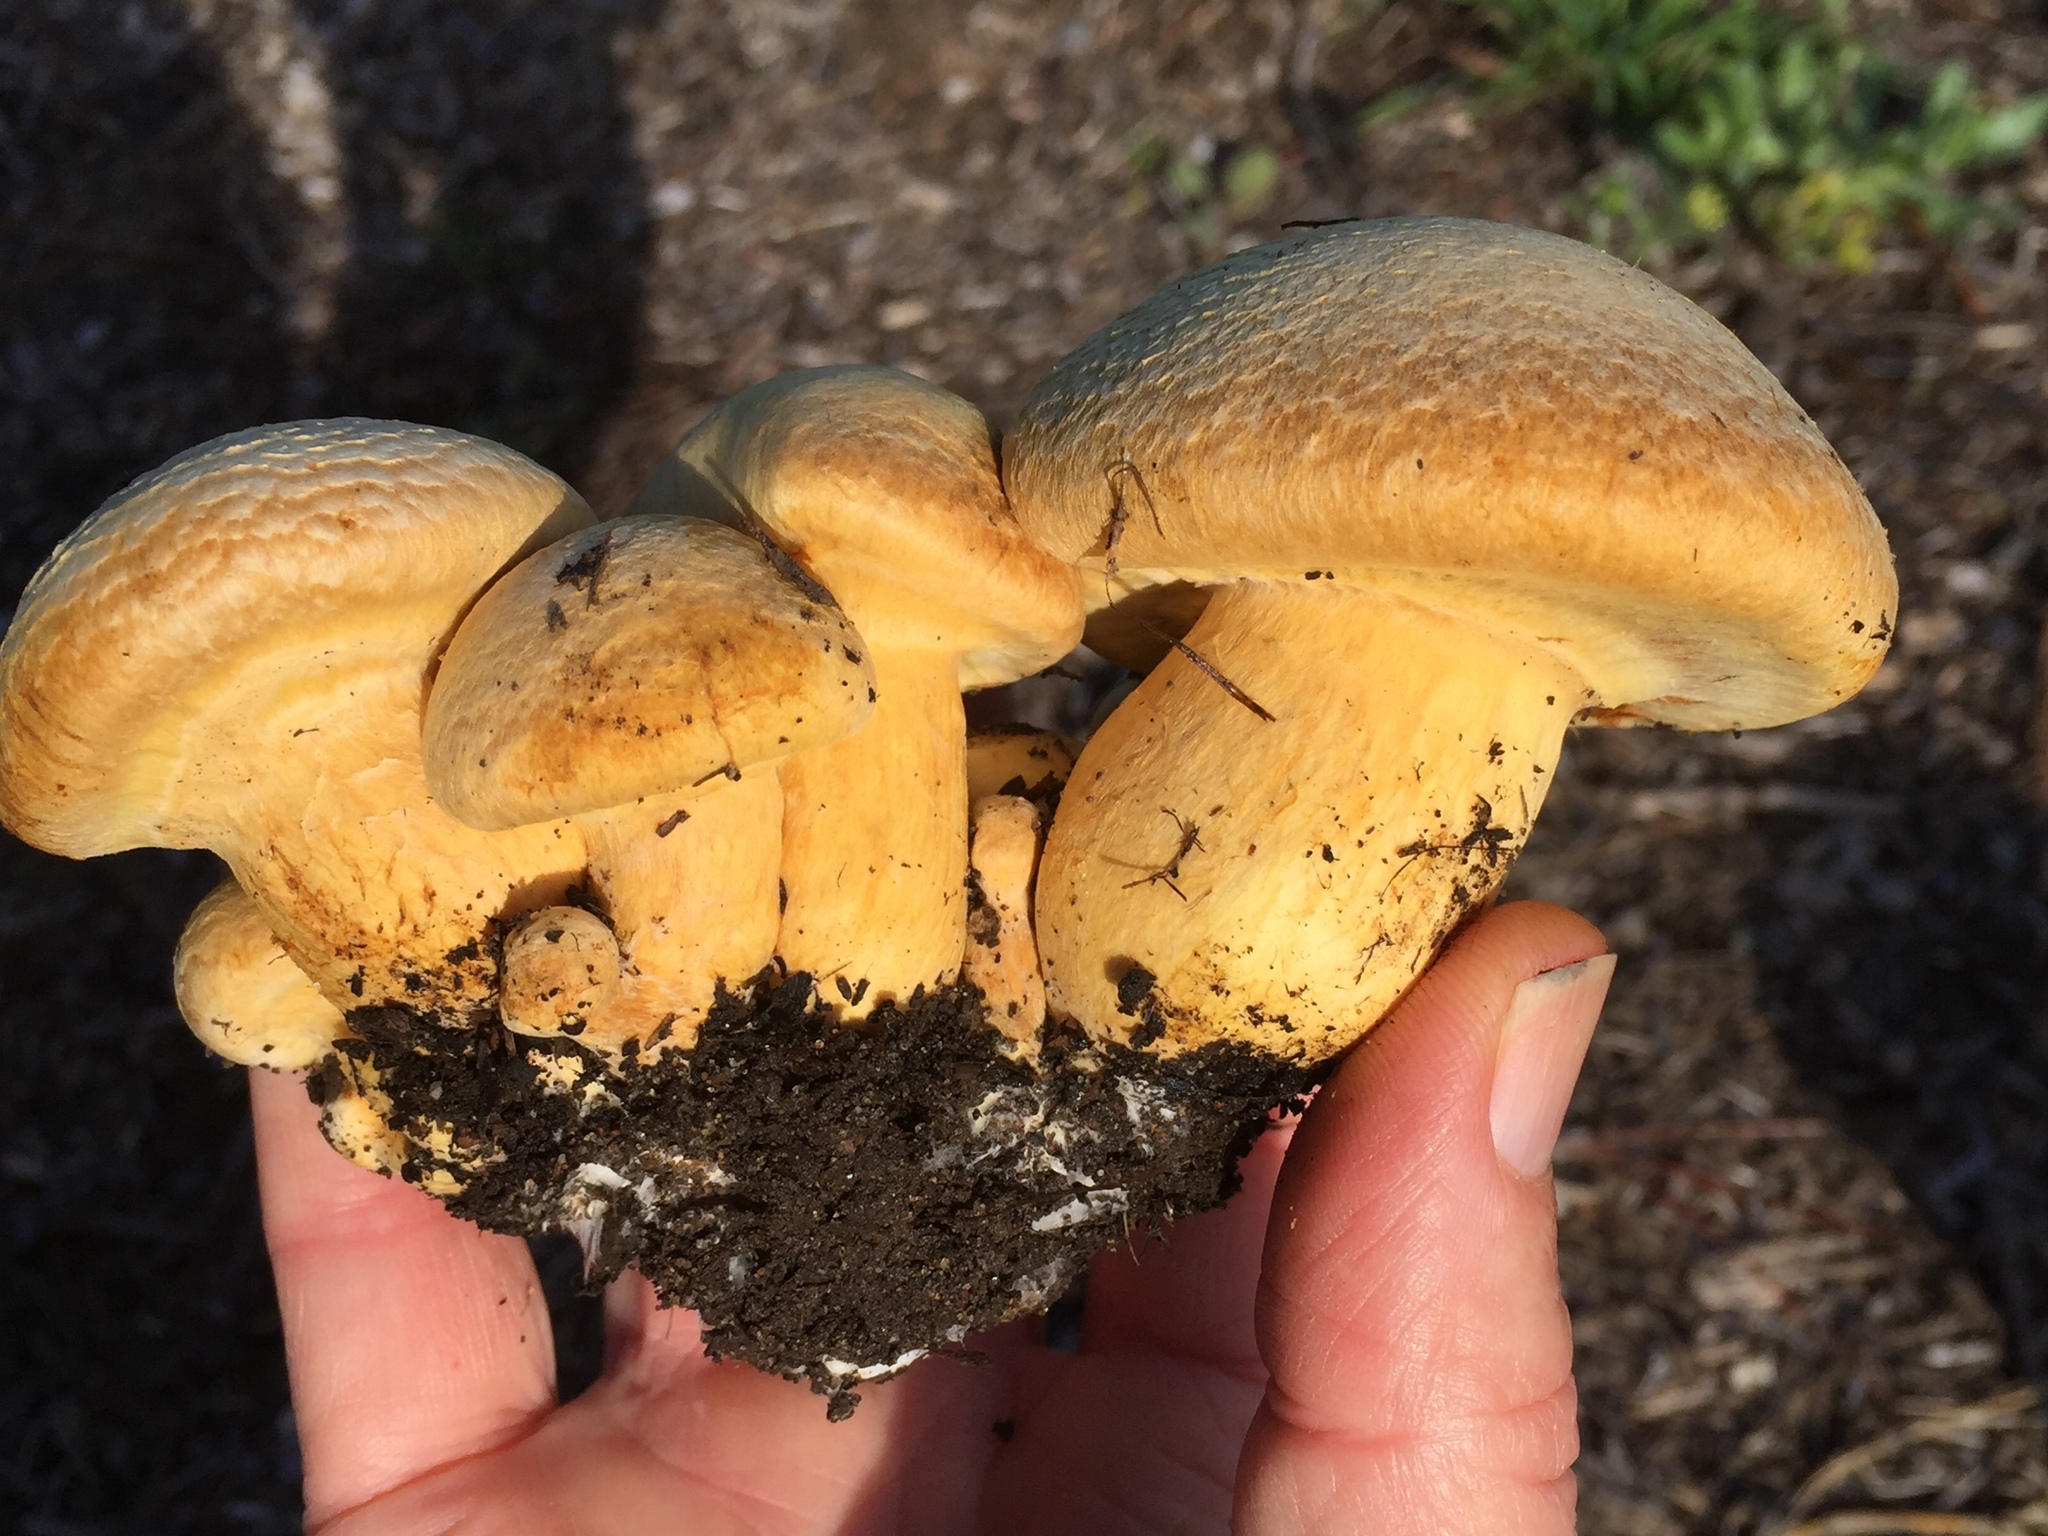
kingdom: Fungi
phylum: Basidiomycota
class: Agaricomycetes
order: Agaricales
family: Hymenogastraceae
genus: Gymnopilus
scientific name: Gymnopilus ventricosus
